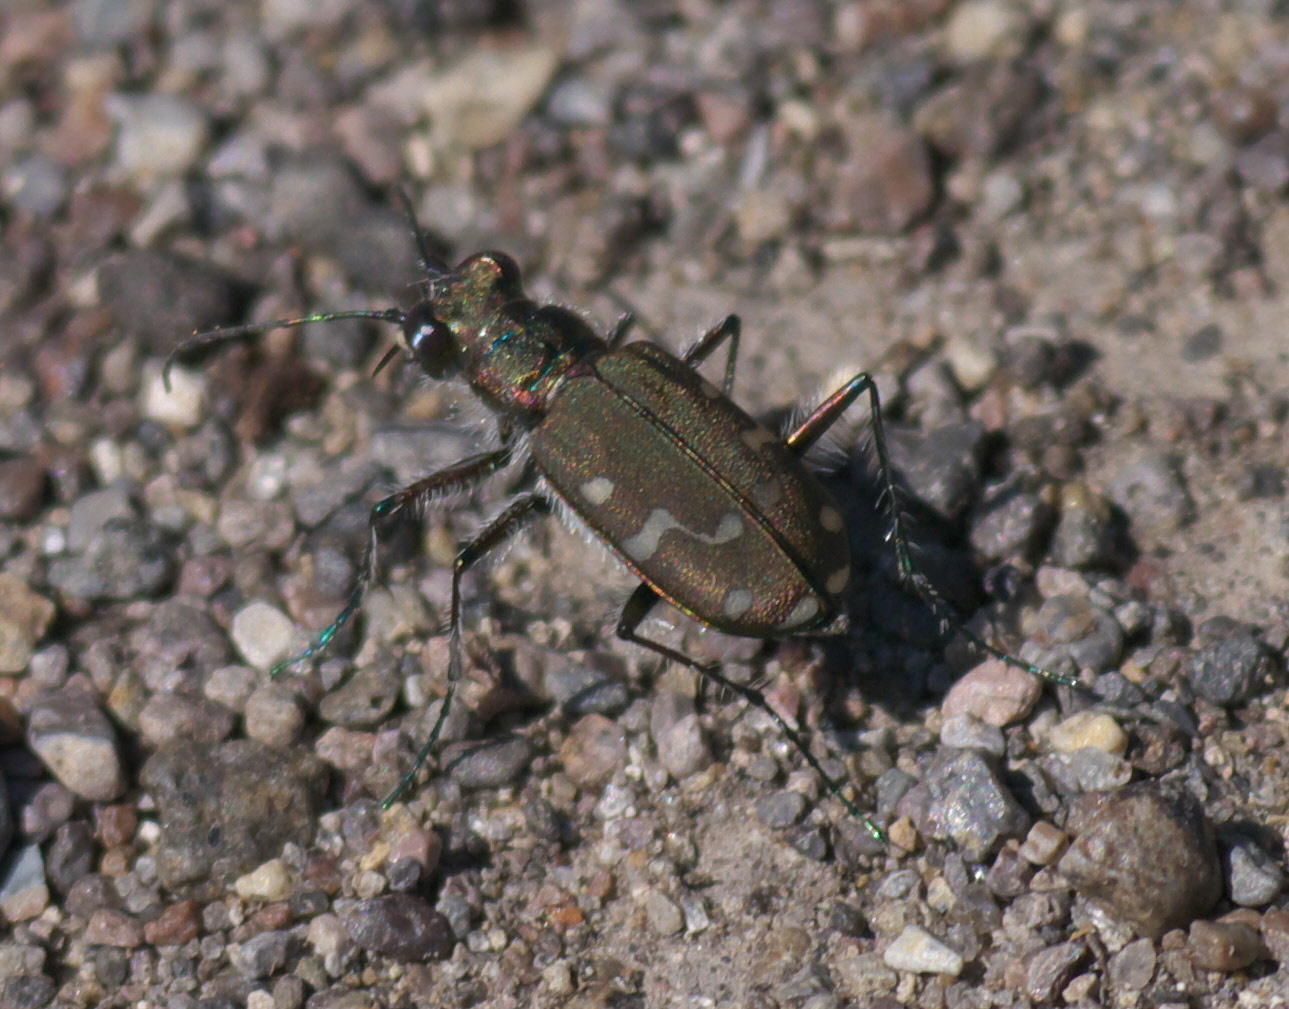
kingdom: Animalia
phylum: Arthropoda
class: Insecta
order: Coleoptera
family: Carabidae
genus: Cicindela
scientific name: Cicindela oregona
